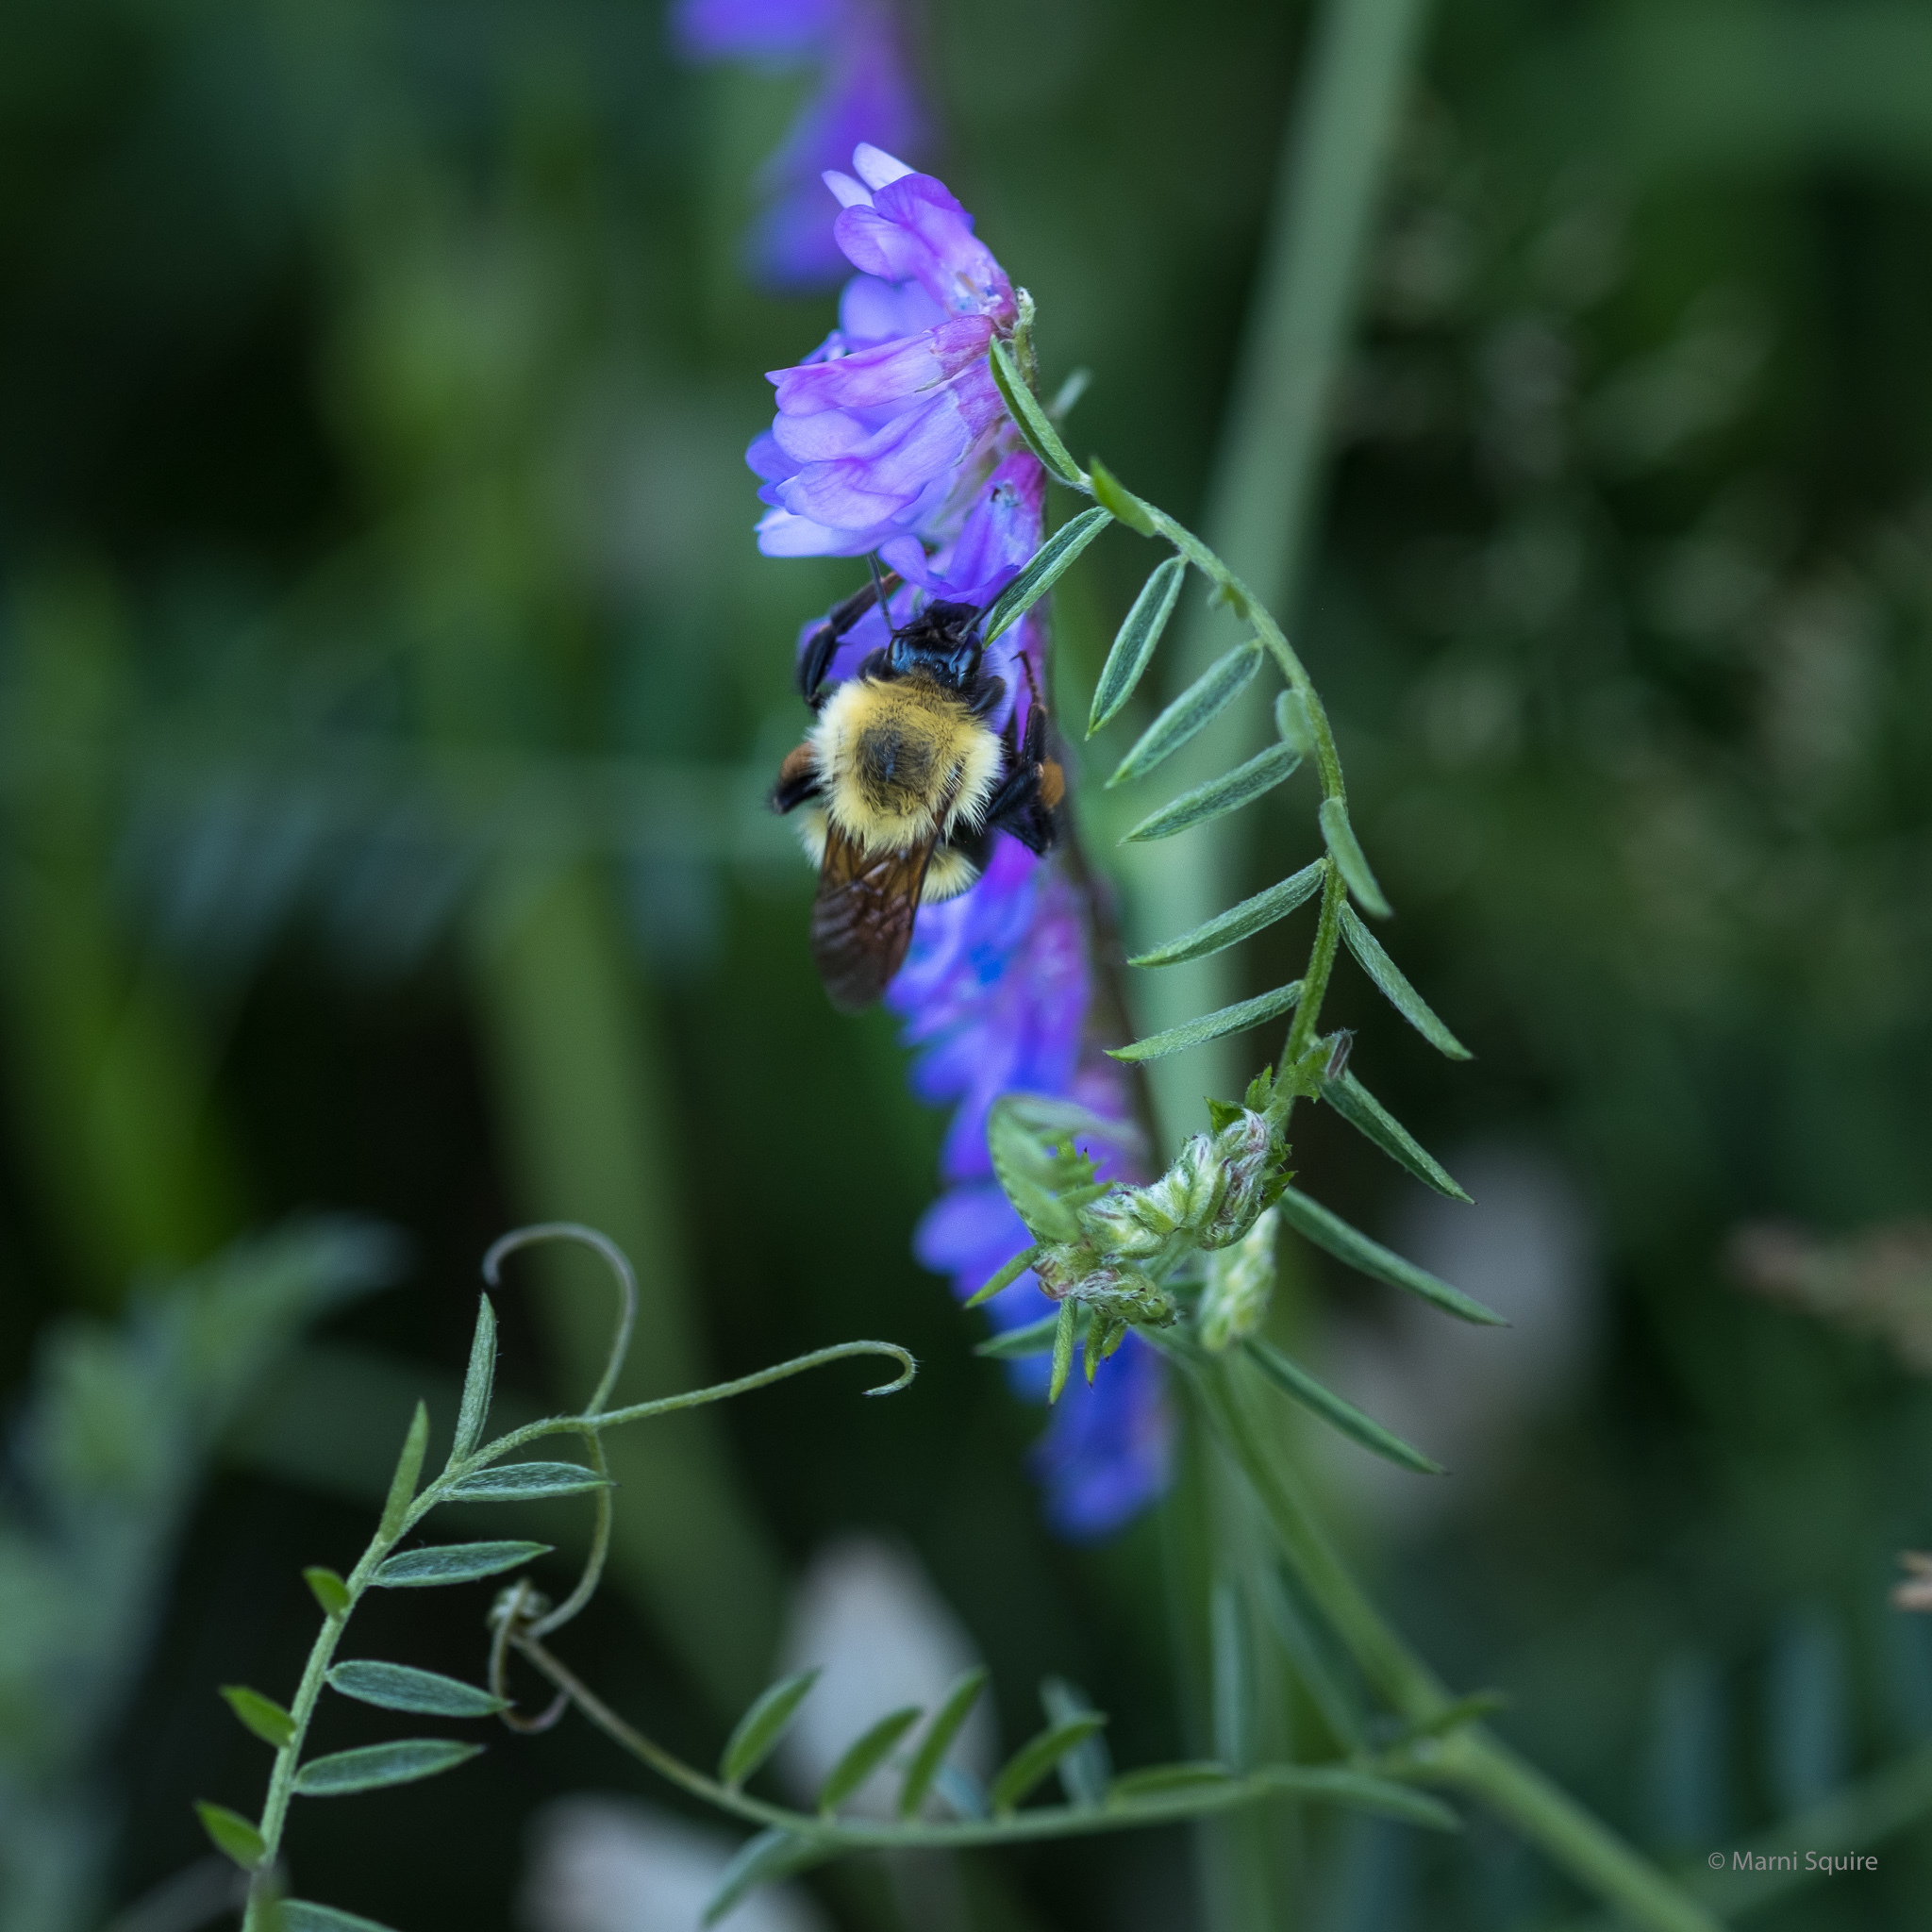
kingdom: Animalia
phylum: Arthropoda
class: Insecta
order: Hymenoptera
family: Apidae
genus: Bombus
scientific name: Bombus bimaculatus
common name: Two-spotted bumble bee
